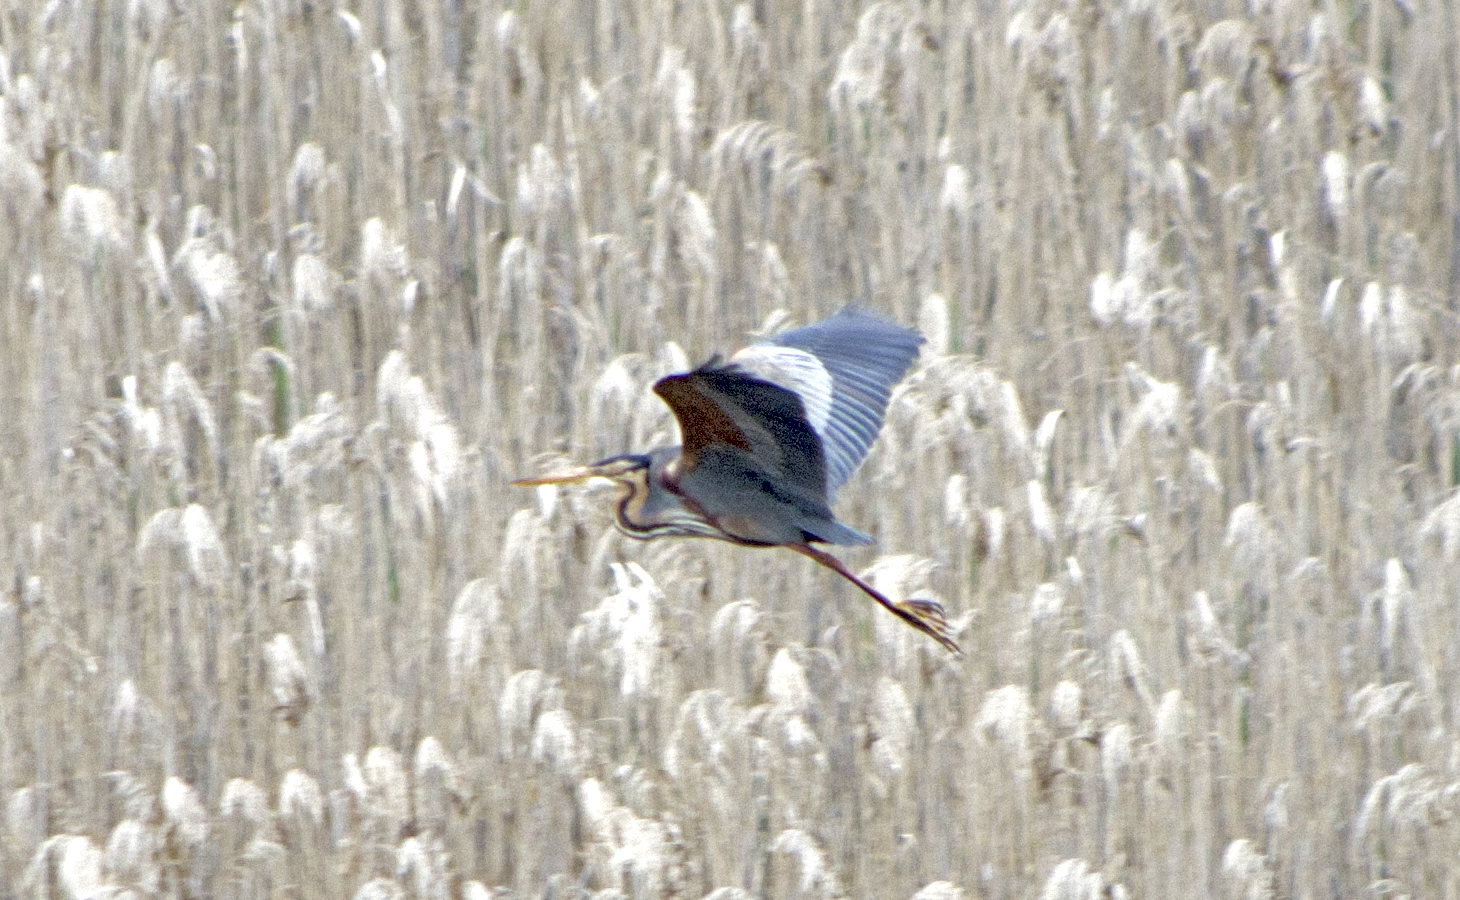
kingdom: Animalia
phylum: Chordata
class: Aves
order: Pelecaniformes
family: Ardeidae
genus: Ardea
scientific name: Ardea purpurea
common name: Purple heron
